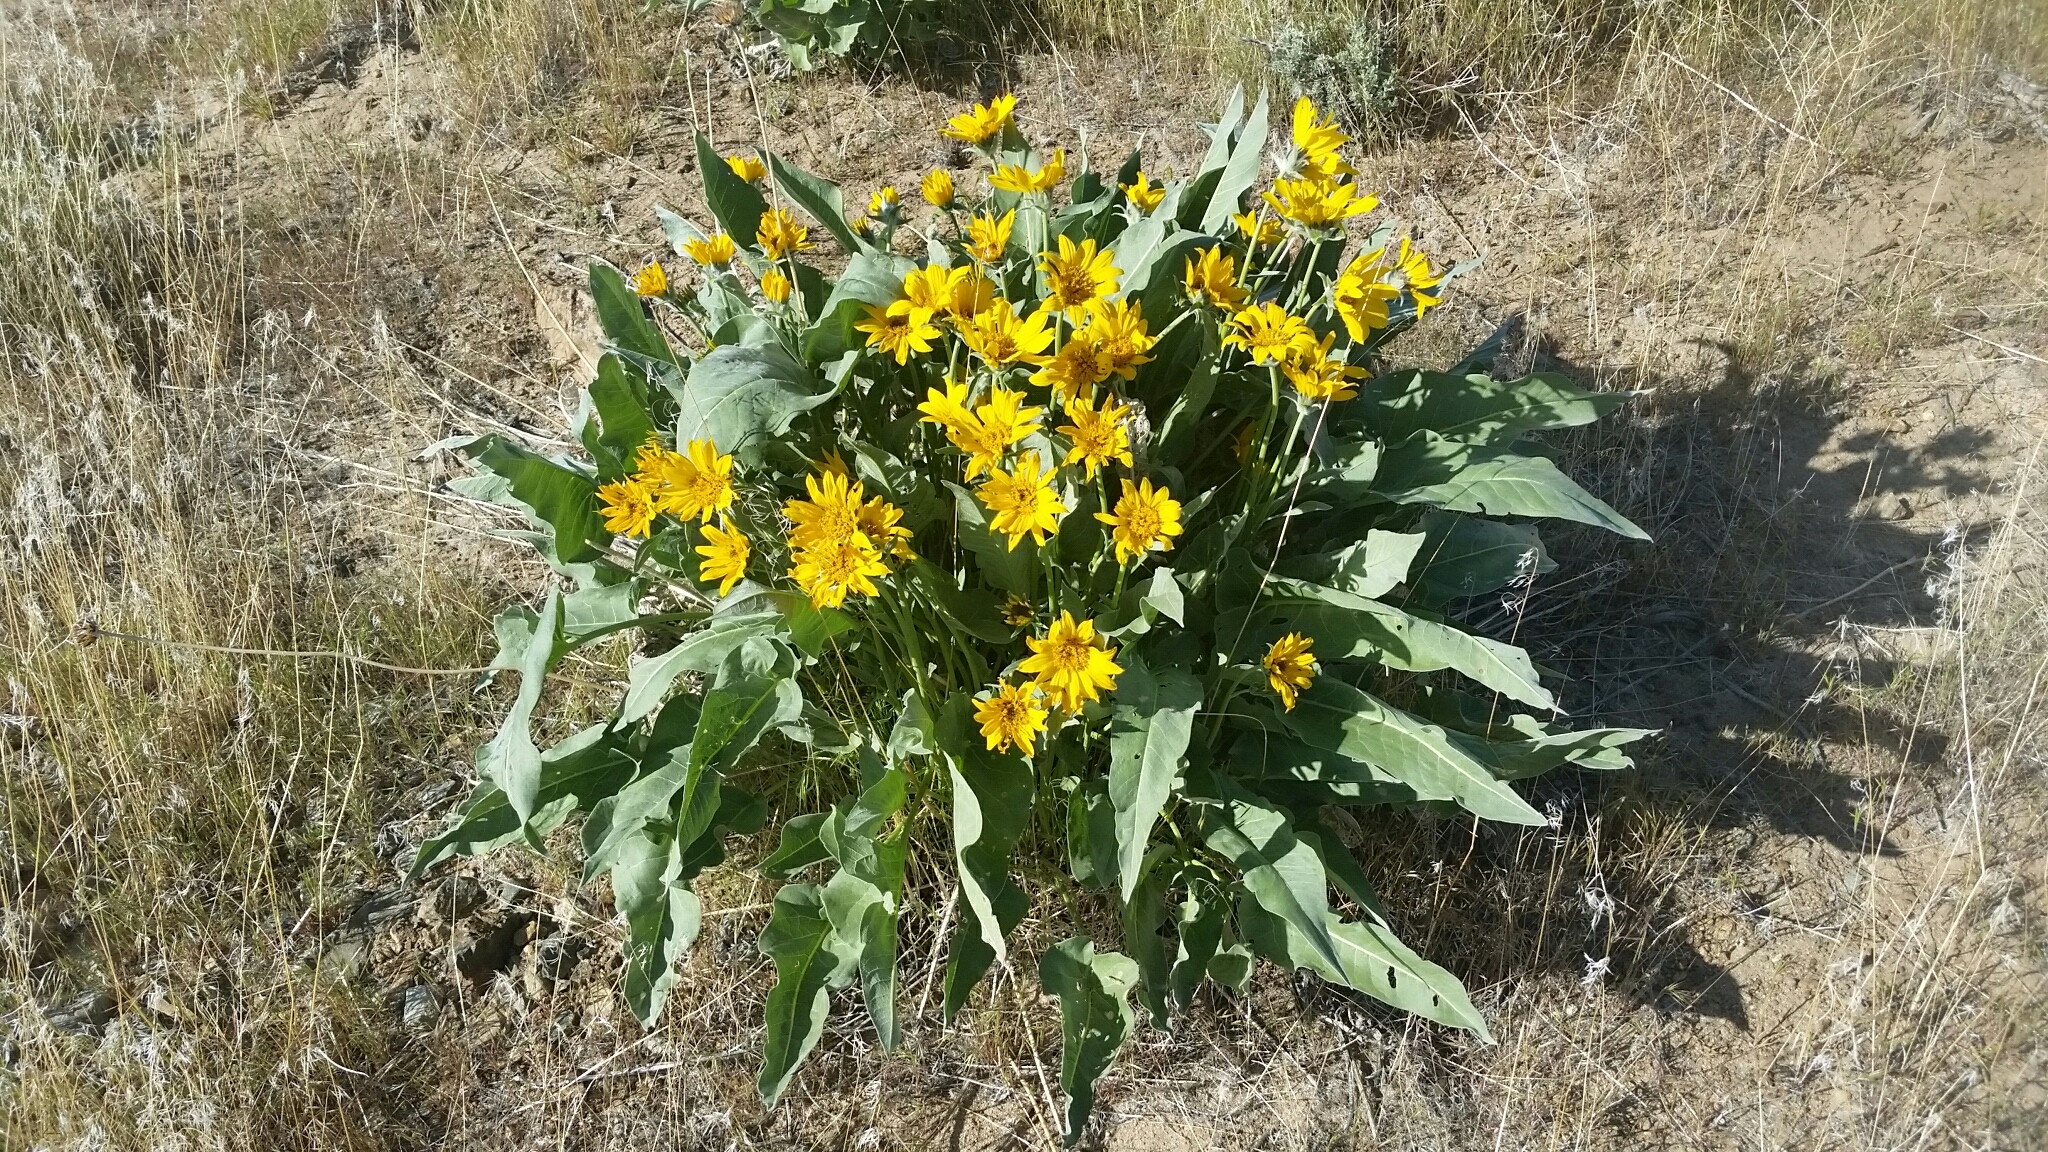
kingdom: Plantae
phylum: Tracheophyta
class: Magnoliopsida
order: Asterales
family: Asteraceae
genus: Wyethia
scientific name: Wyethia sagittata
